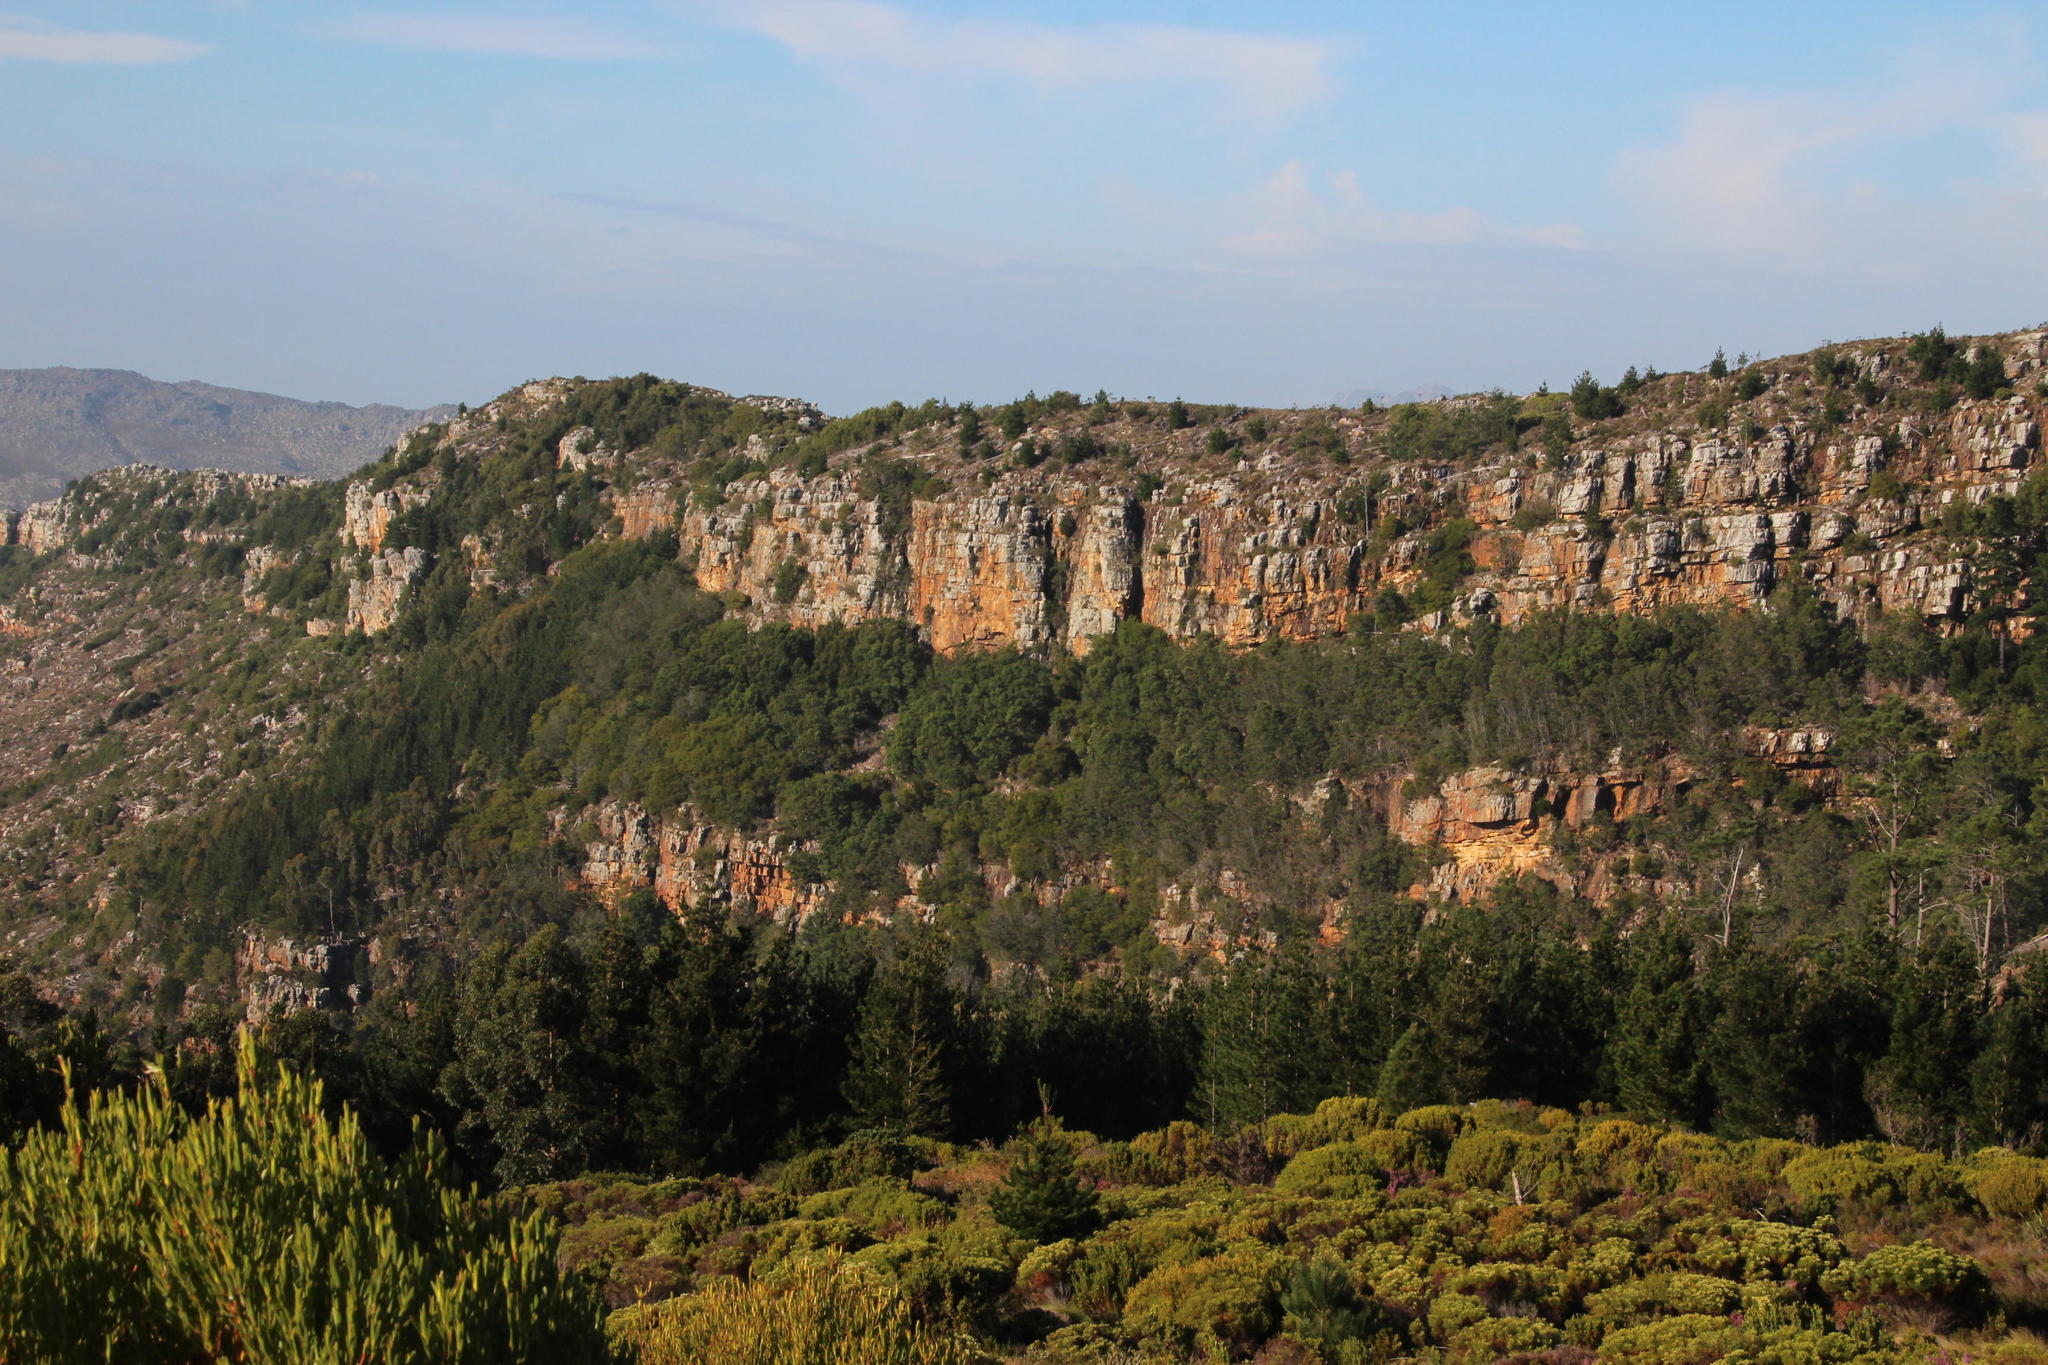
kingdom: Plantae
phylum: Tracheophyta
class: Pinopsida
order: Pinales
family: Pinaceae
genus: Pinus
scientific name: Pinus radiata
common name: Monterey pine
